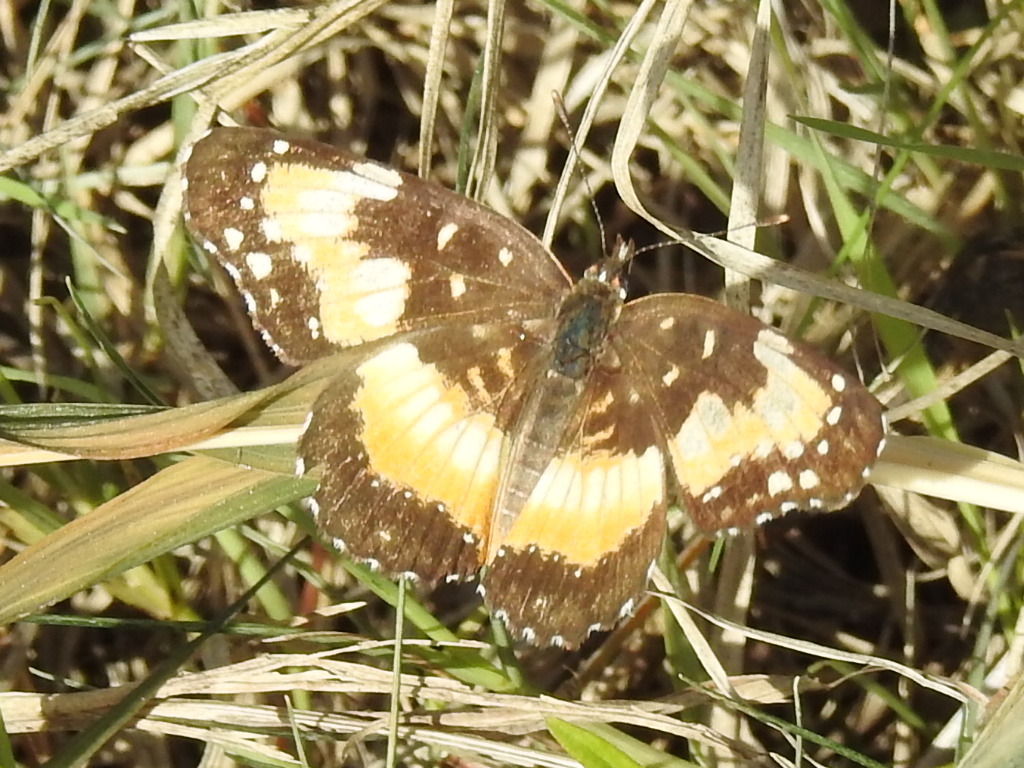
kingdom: Animalia
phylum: Arthropoda
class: Insecta
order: Lepidoptera
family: Nymphalidae
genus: Chlosyne
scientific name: Chlosyne lacinia
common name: Bordered patch
